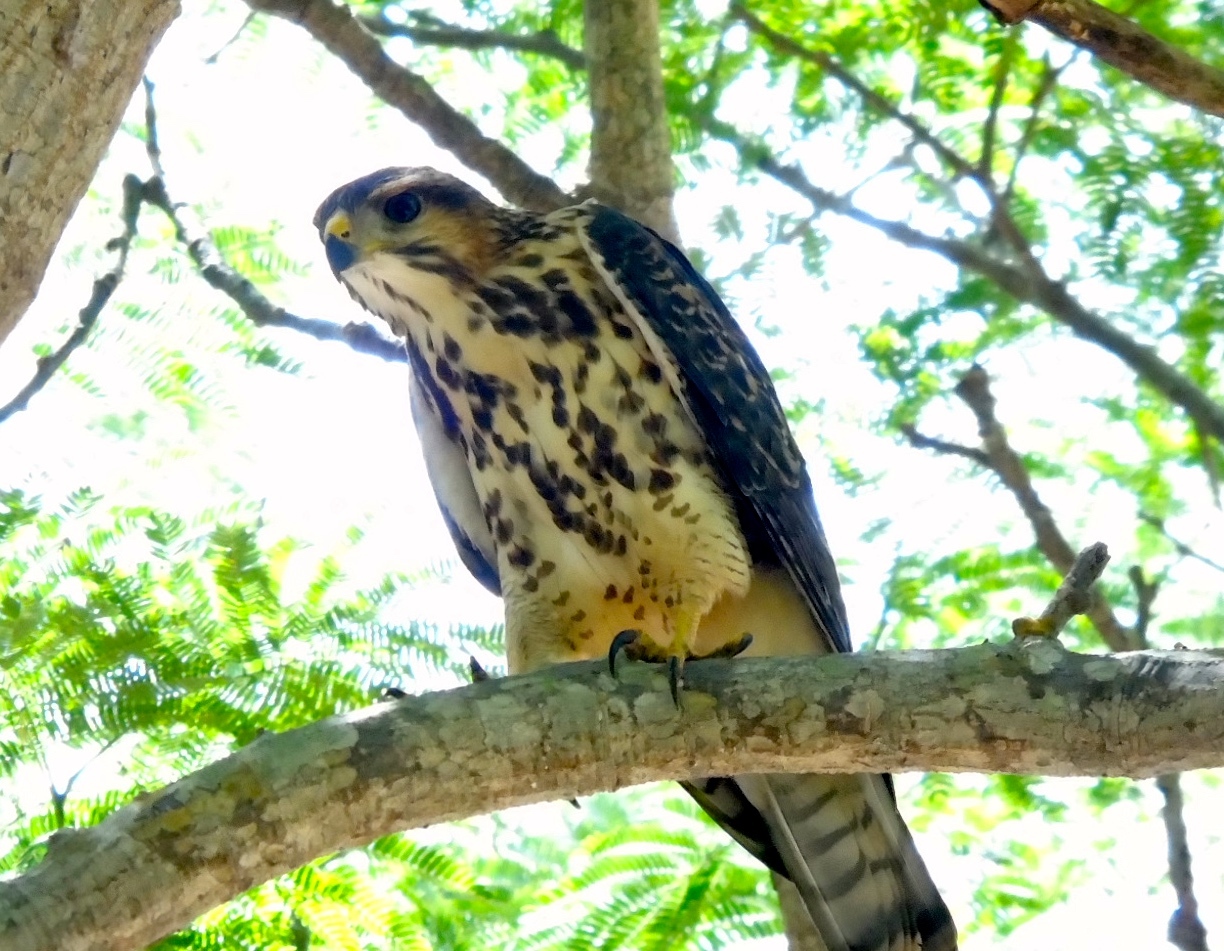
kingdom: Animalia
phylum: Chordata
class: Aves
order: Accipitriformes
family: Accipitridae
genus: Buteo
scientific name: Buteo nitidus
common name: Grey-lined hawk
